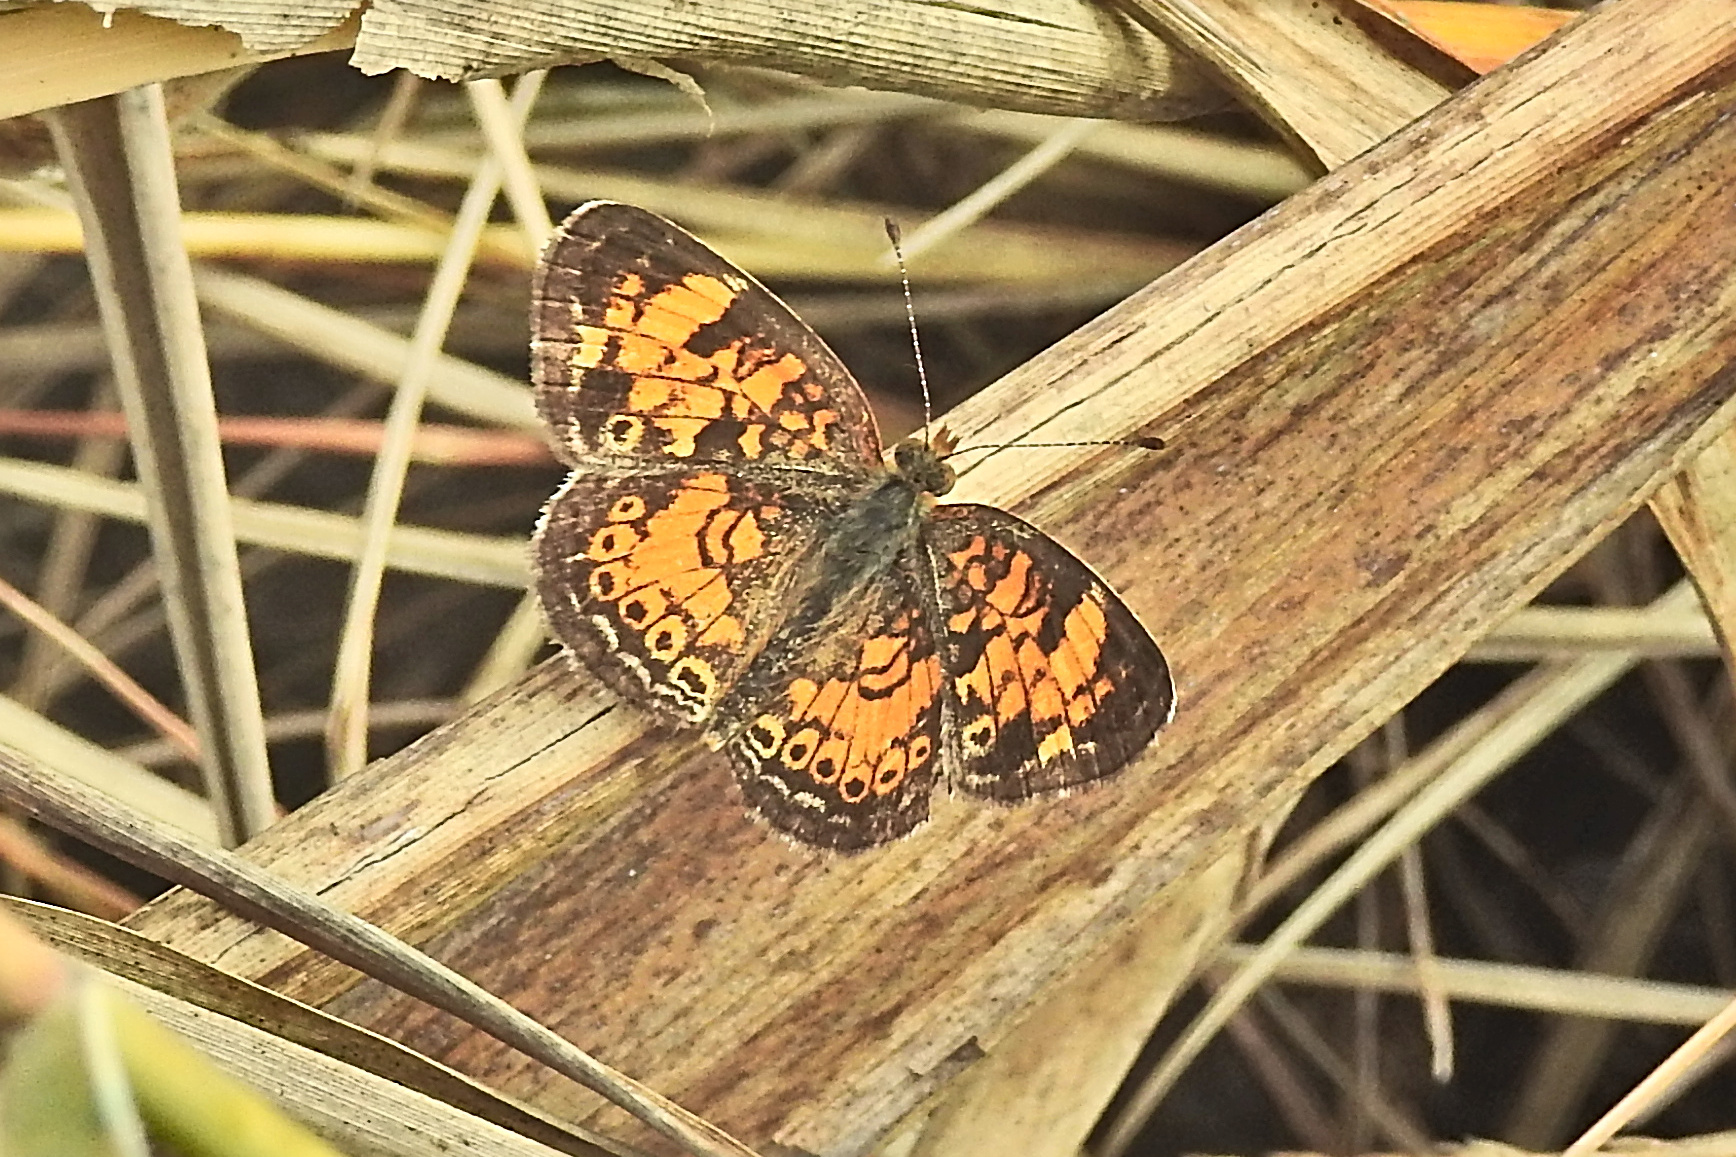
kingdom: Animalia
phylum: Arthropoda
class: Insecta
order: Lepidoptera
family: Nymphalidae
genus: Phyciodes
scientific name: Phyciodes tharos
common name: Pearl crescent
